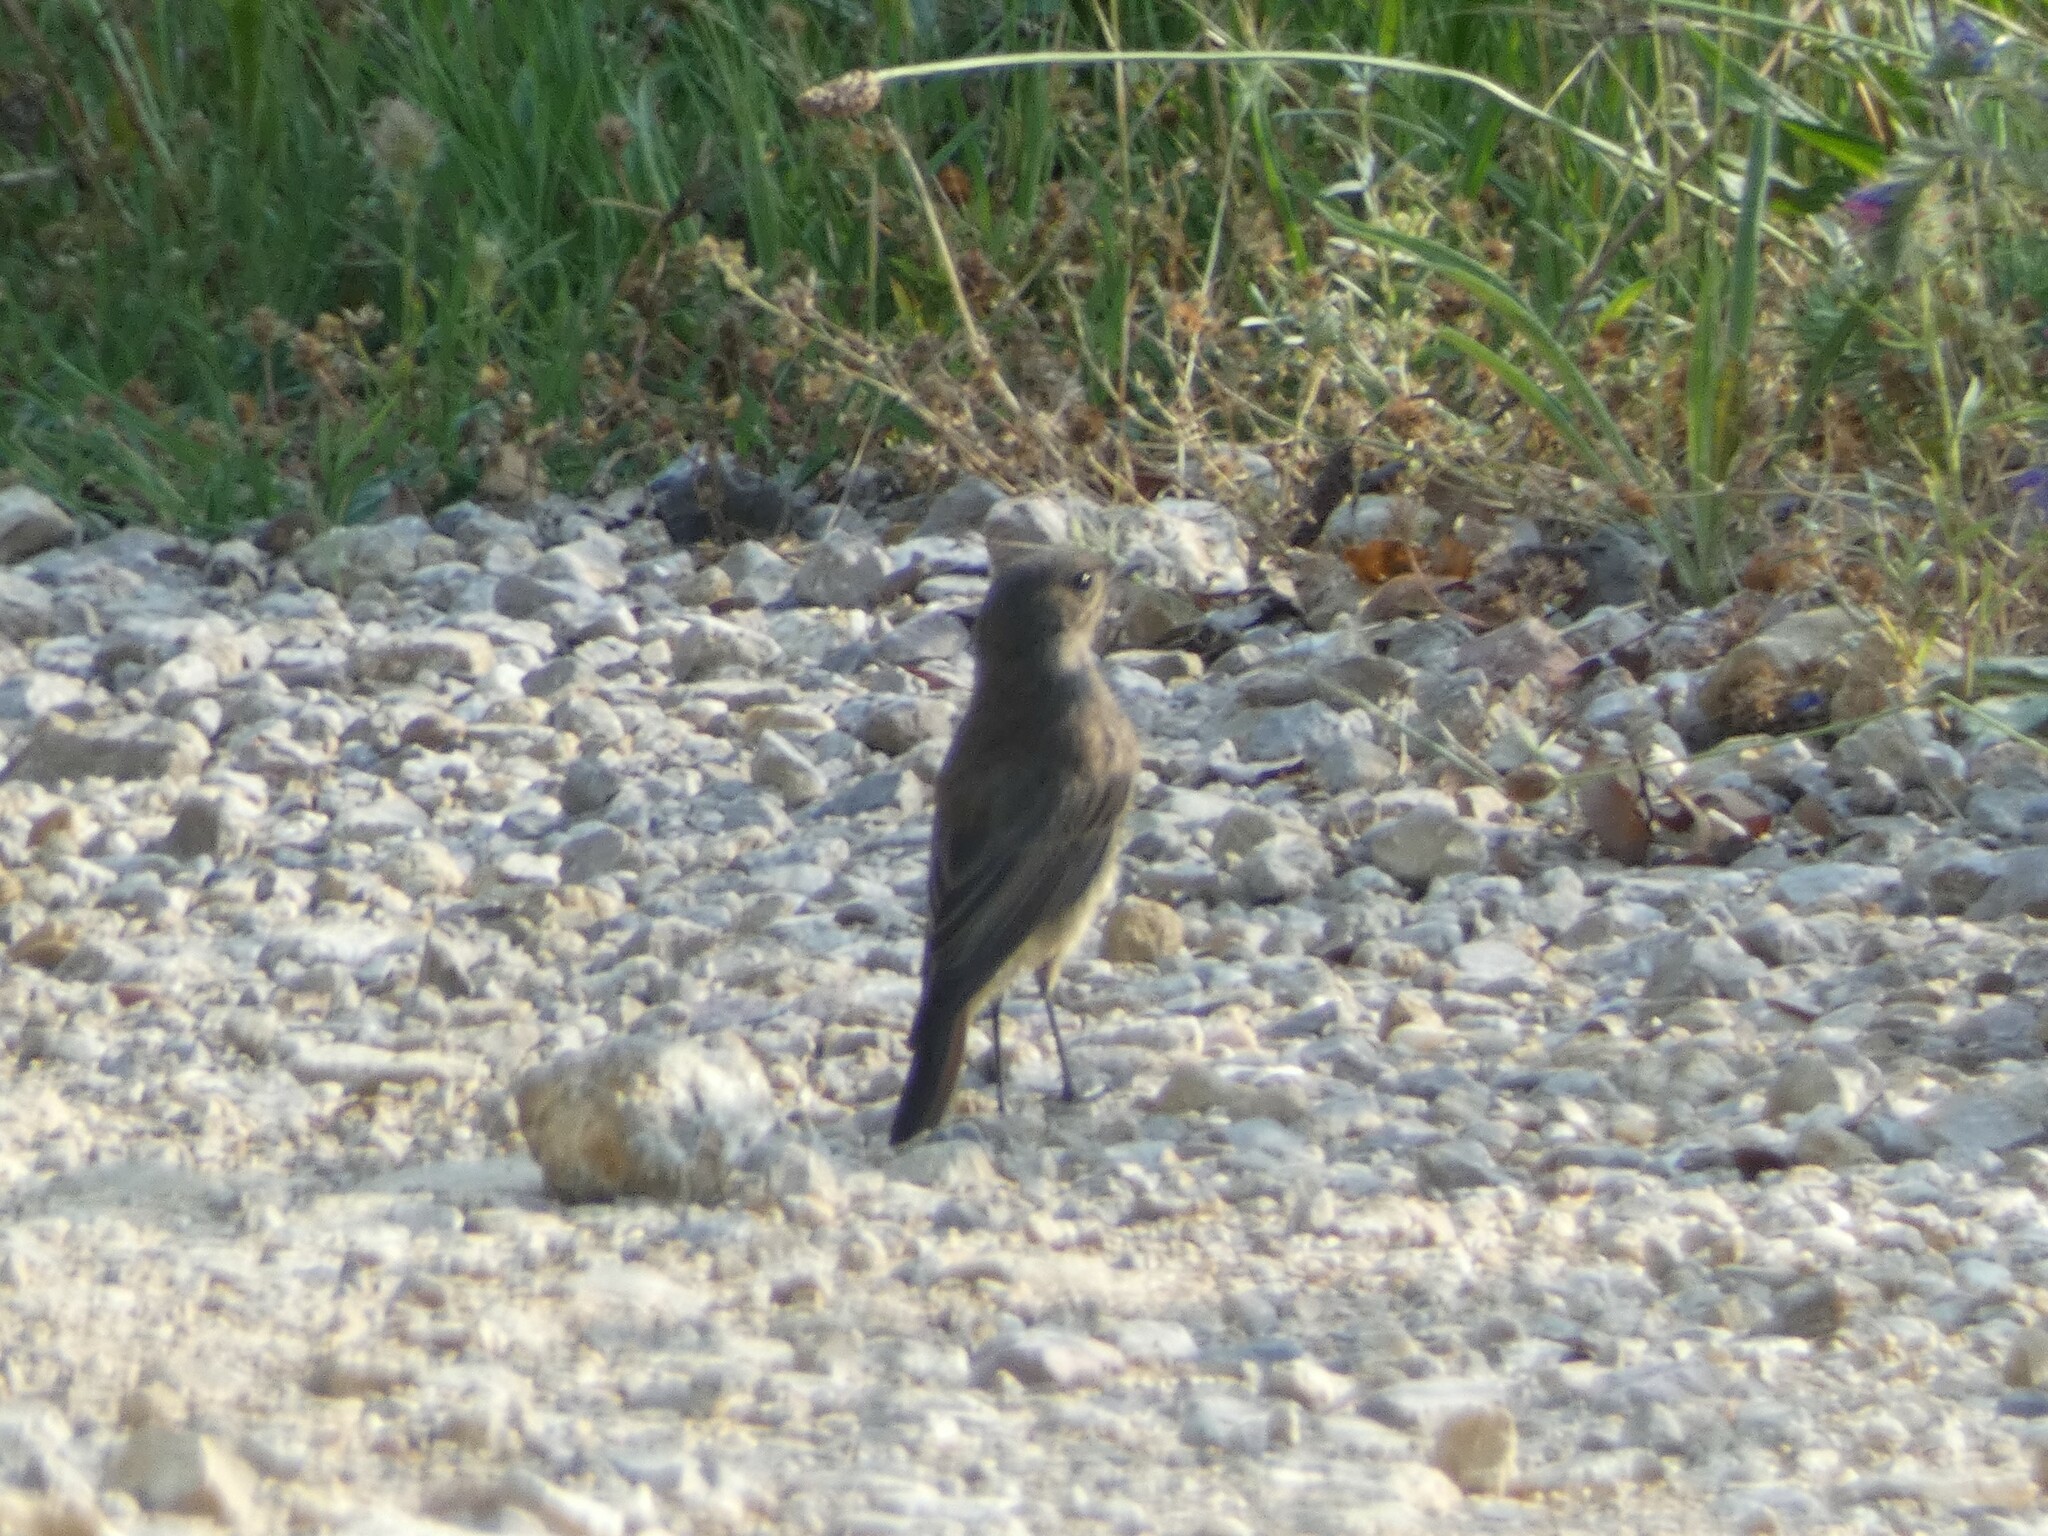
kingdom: Animalia
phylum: Chordata
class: Aves
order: Passeriformes
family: Muscicapidae
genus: Phoenicurus
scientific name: Phoenicurus phoenicurus
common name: Common redstart
